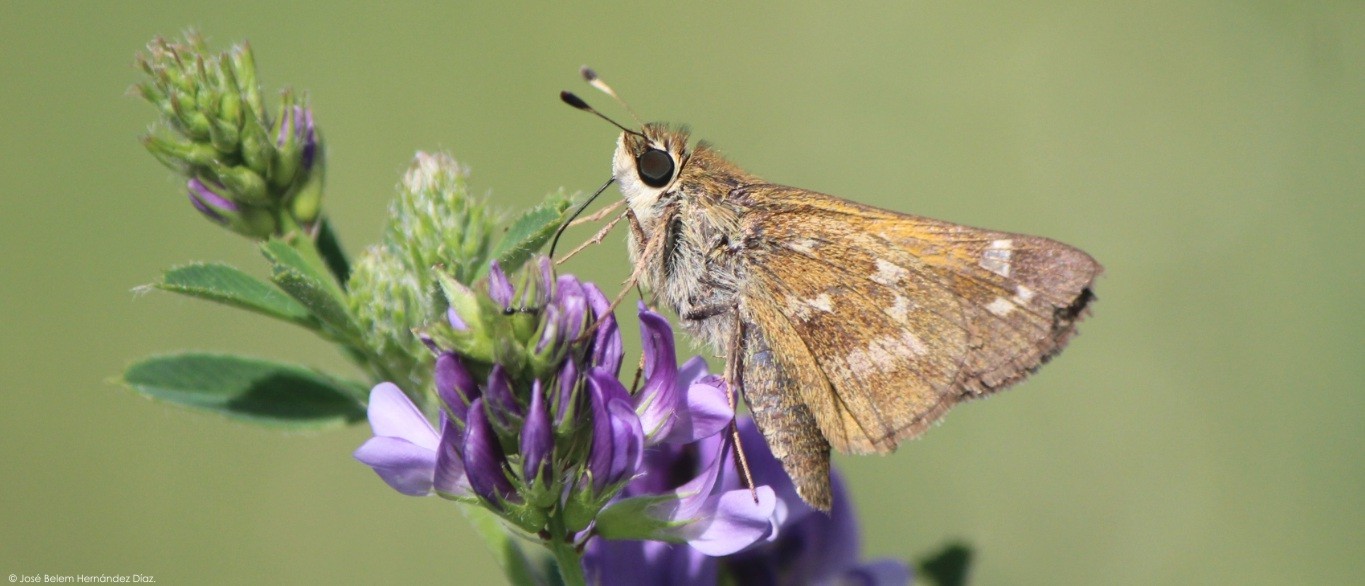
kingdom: Animalia
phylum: Arthropoda
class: Insecta
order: Lepidoptera
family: Hesperiidae
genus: Atalopedes
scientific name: Atalopedes
